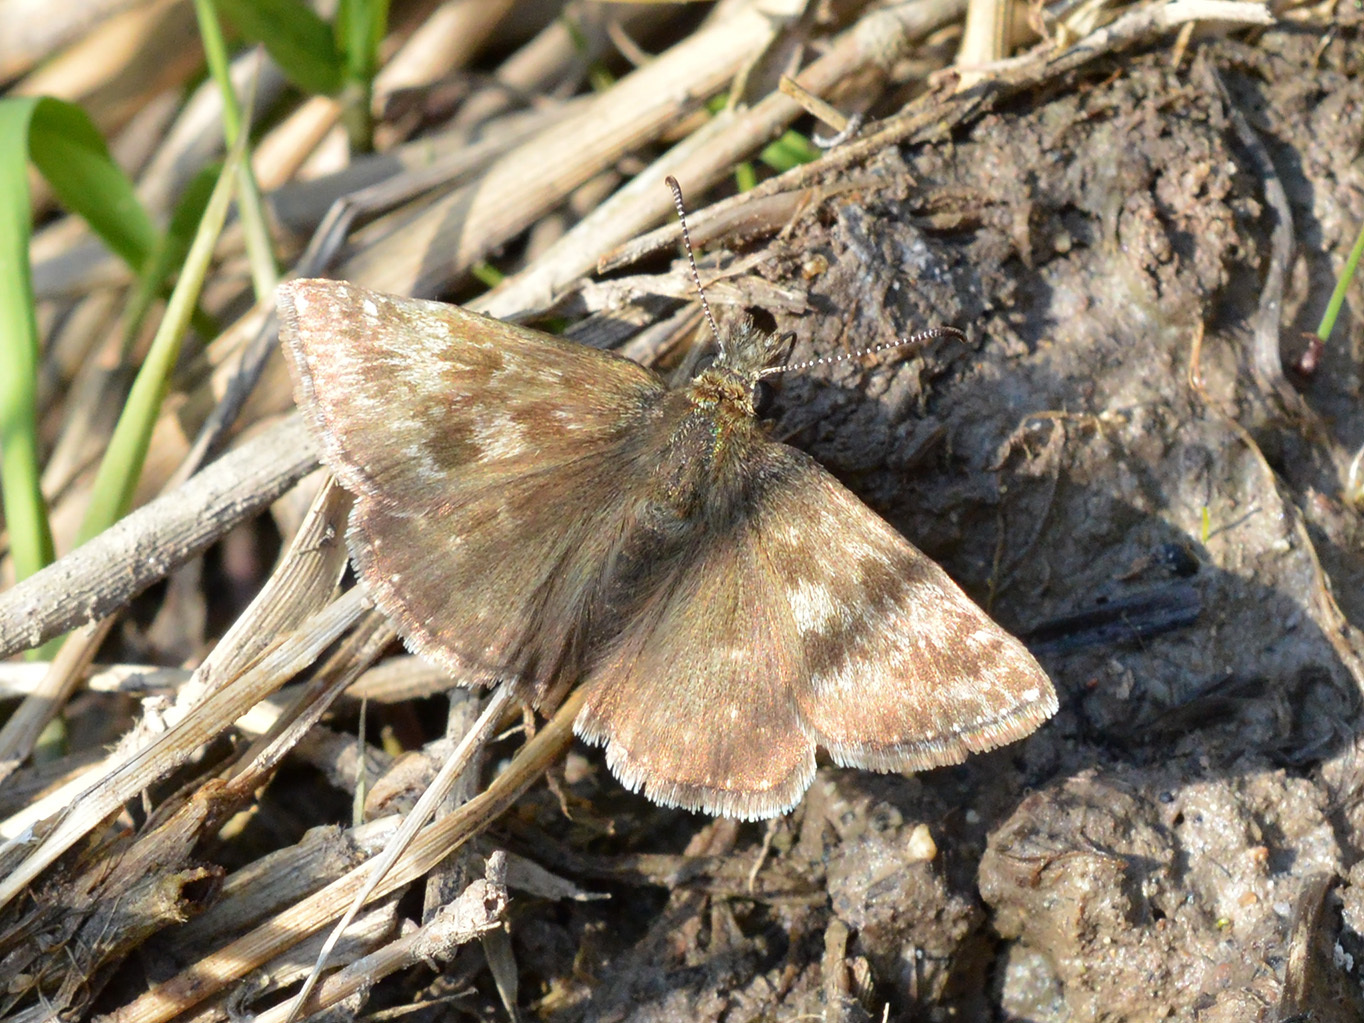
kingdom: Animalia
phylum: Arthropoda
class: Insecta
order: Lepidoptera
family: Hesperiidae
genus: Erynnis
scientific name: Erynnis tages
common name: Dingy skipper
